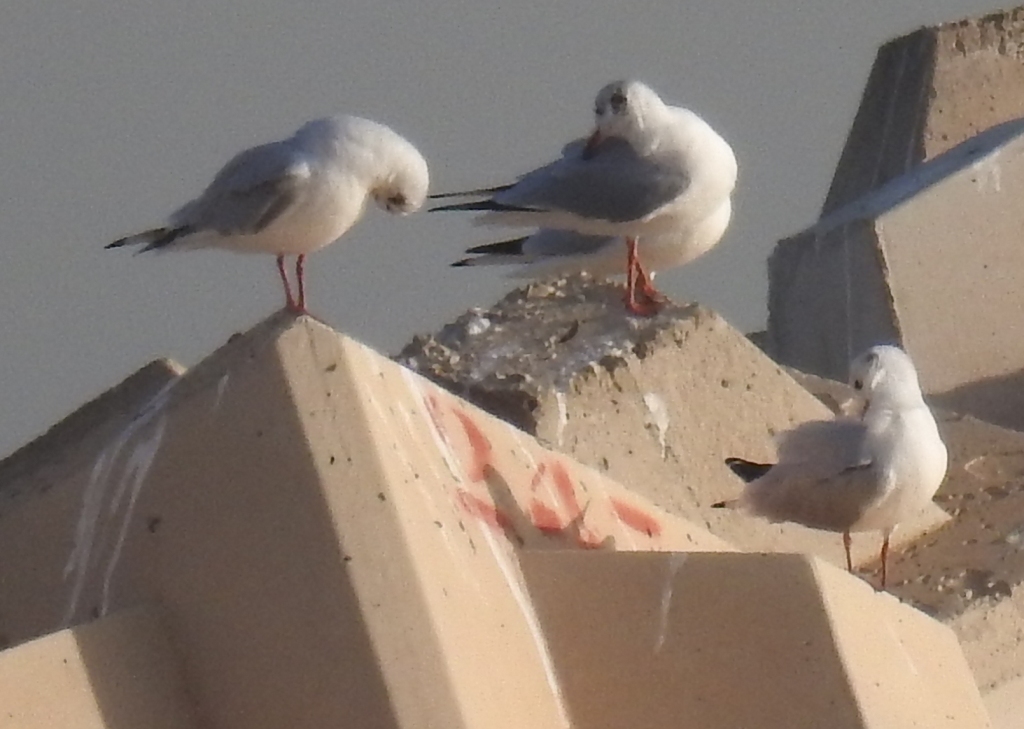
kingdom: Animalia
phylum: Chordata
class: Aves
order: Charadriiformes
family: Laridae
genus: Chroicocephalus
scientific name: Chroicocephalus ridibundus
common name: Black-headed gull
